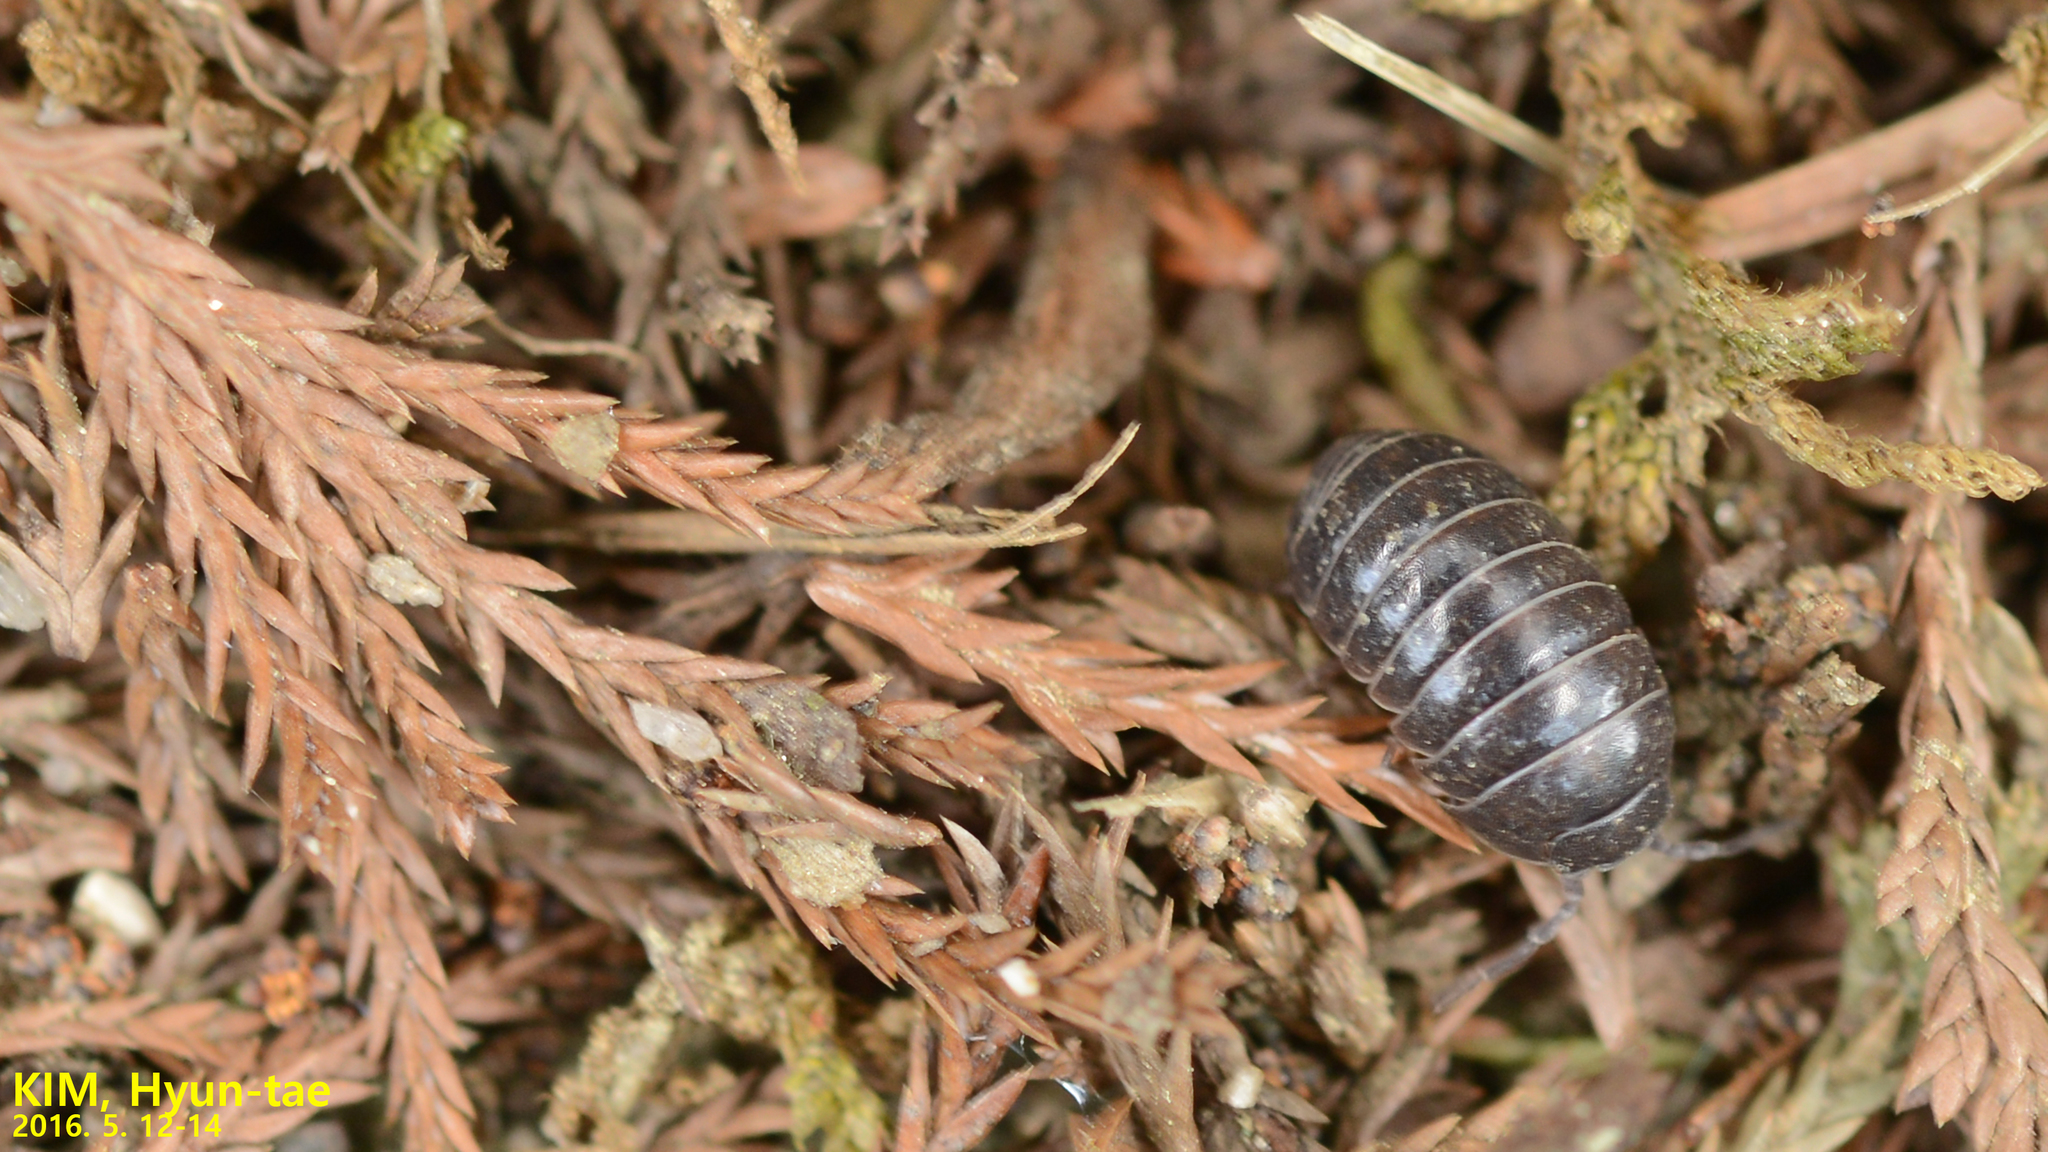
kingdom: Animalia
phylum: Arthropoda
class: Malacostraca
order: Isopoda
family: Armadillidiidae
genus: Armadillidium
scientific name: Armadillidium vulgare
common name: Common pill woodlouse
